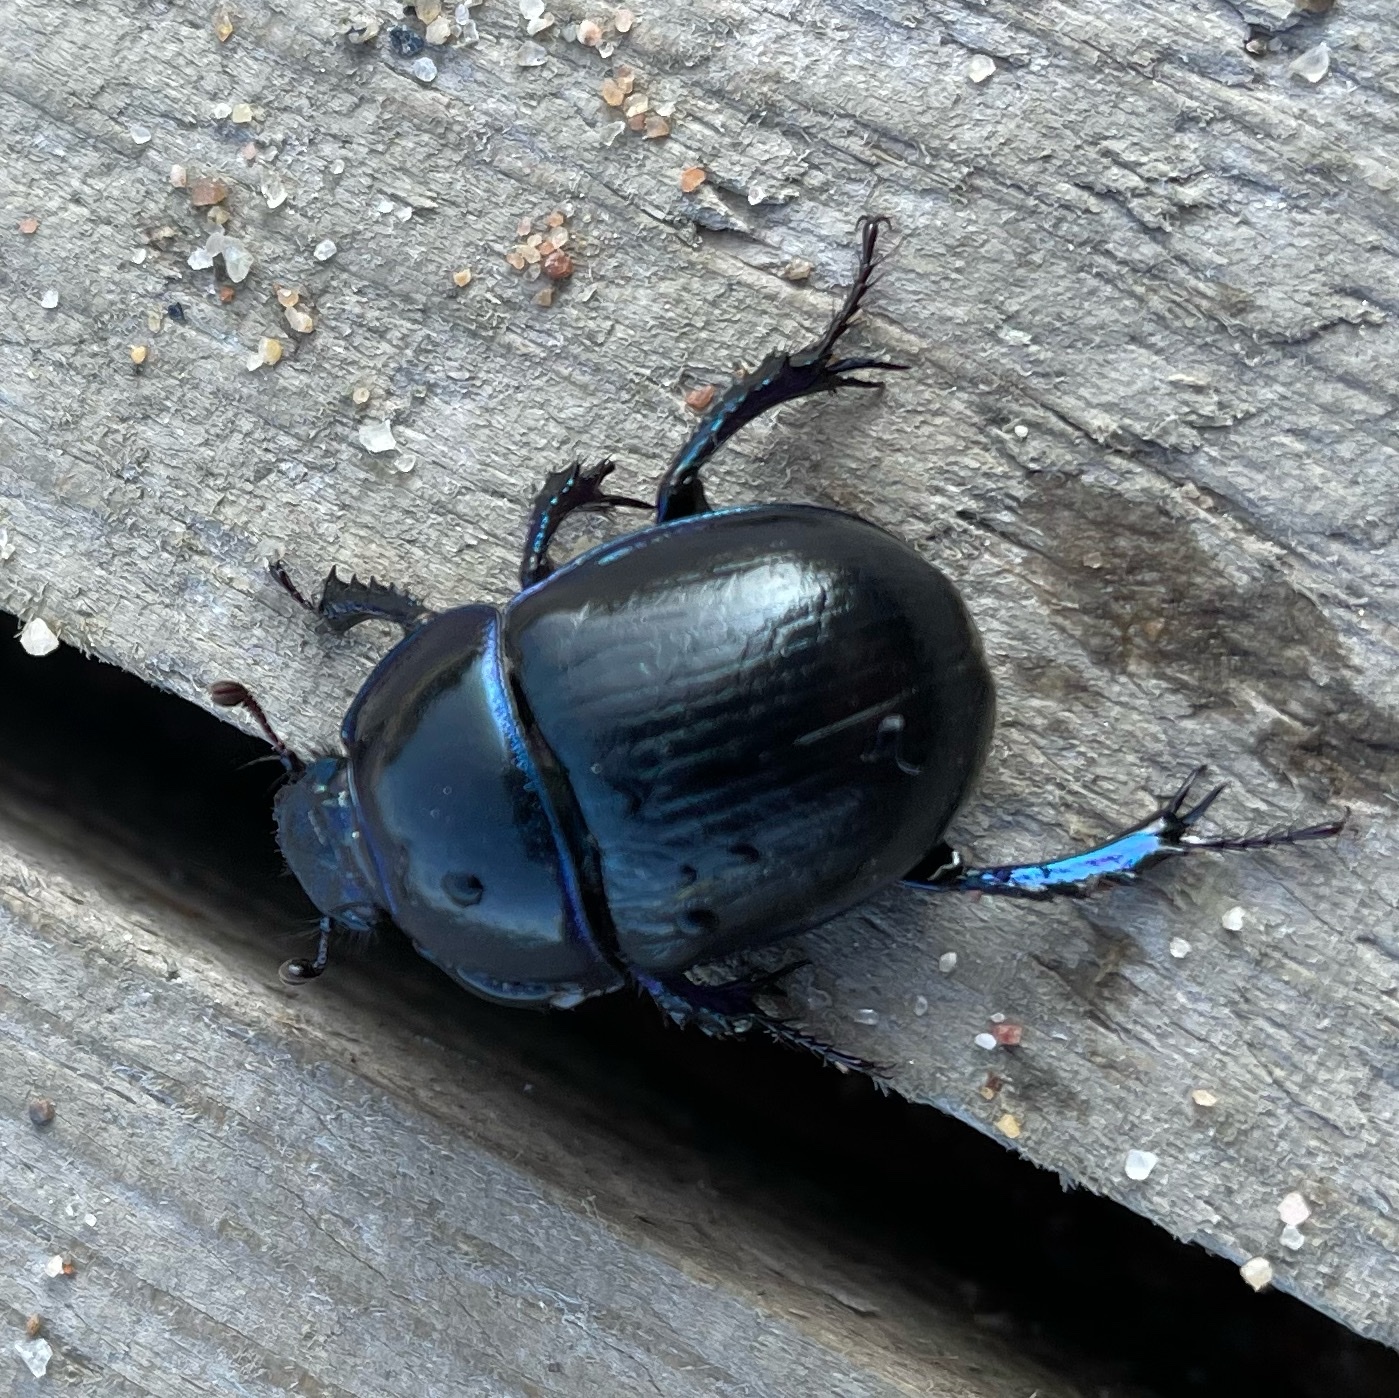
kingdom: Animalia
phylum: Arthropoda
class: Insecta
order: Coleoptera
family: Geotrupidae
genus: Anoplotrupes
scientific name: Anoplotrupes stercorosus
